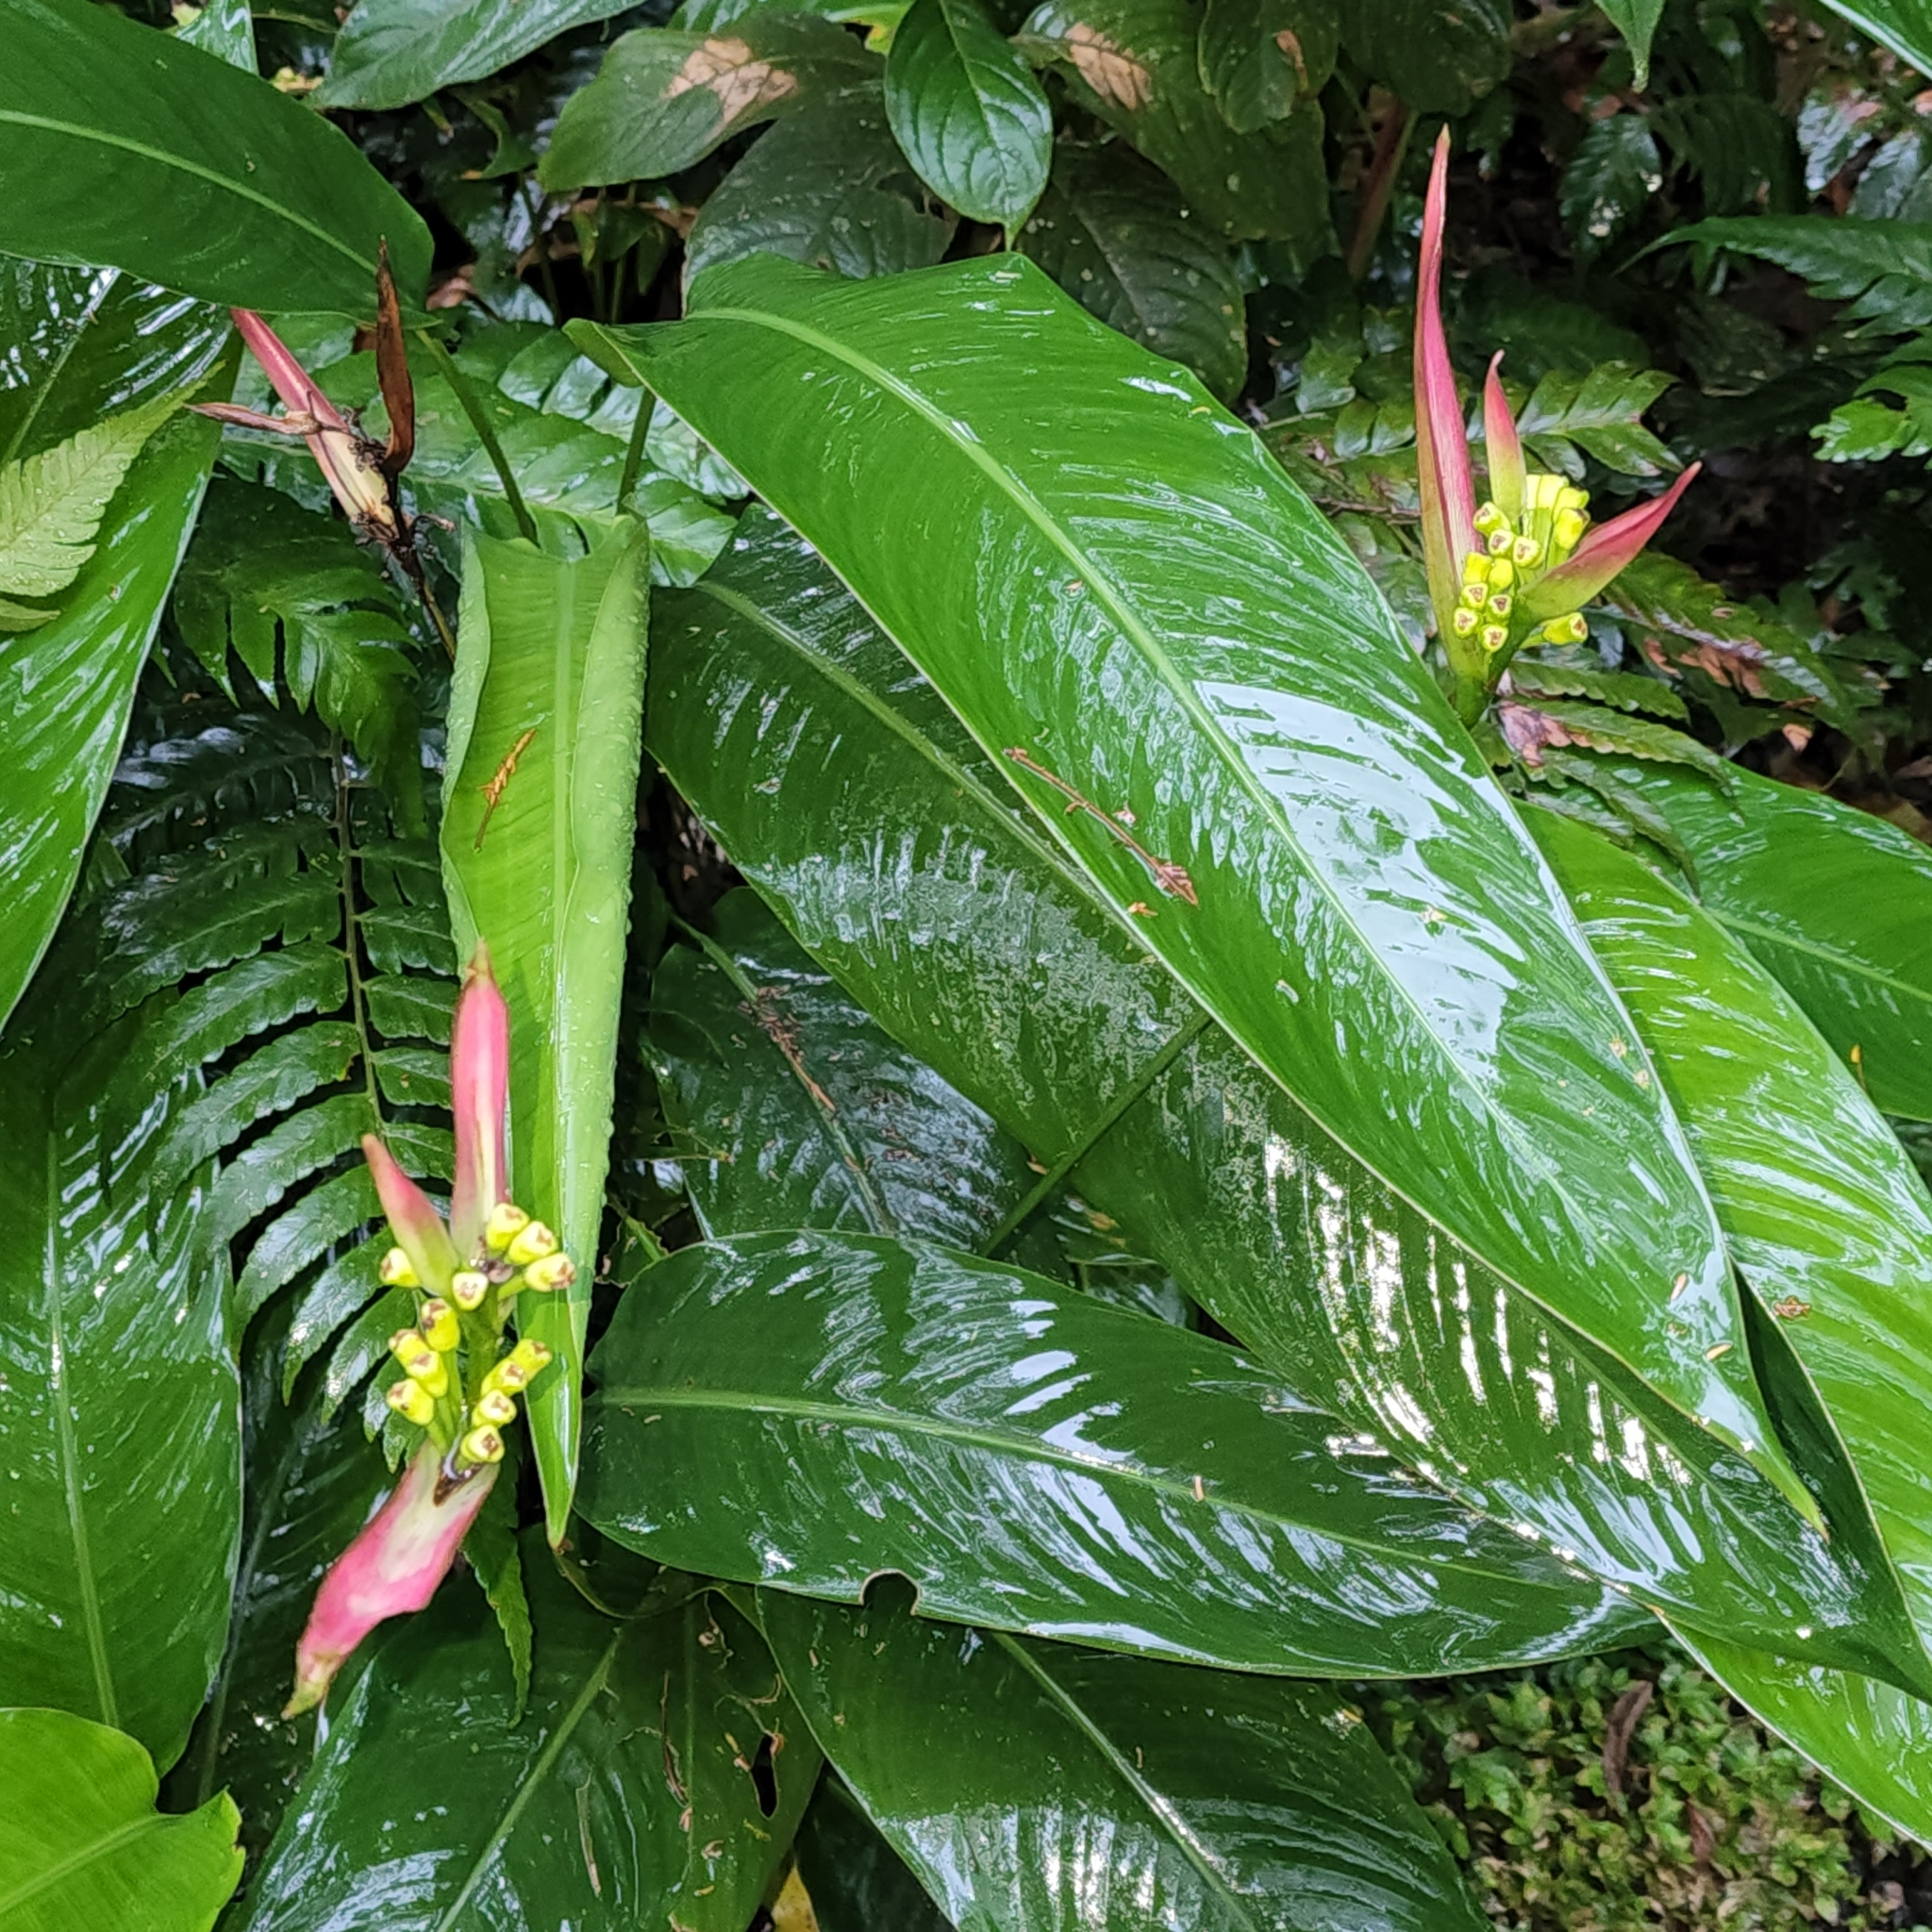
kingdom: Plantae
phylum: Tracheophyta
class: Liliopsida
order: Zingiberales
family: Heliconiaceae
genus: Heliconia
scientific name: Heliconia psittacorum
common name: Parrot's-flower
